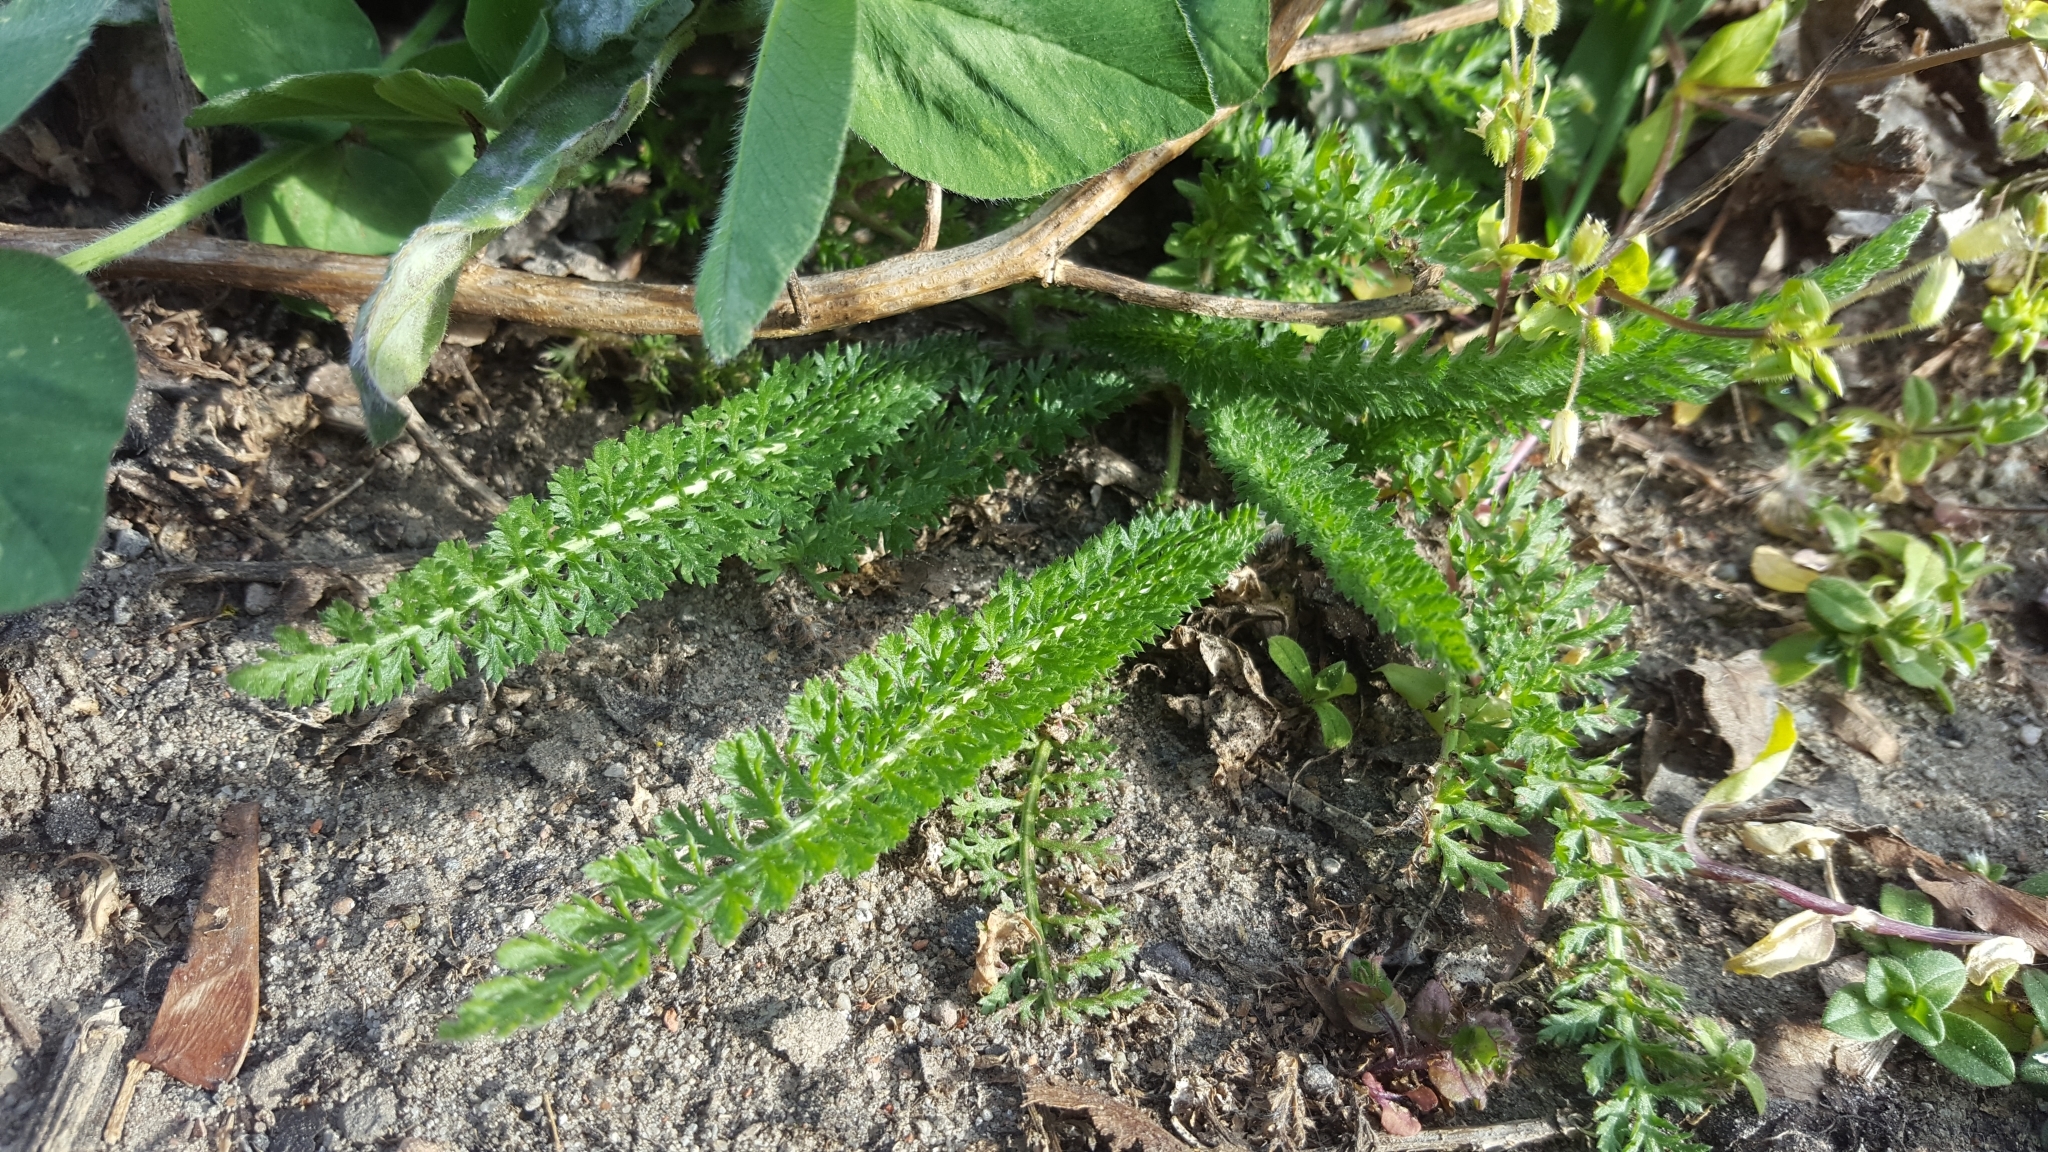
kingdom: Plantae
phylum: Tracheophyta
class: Magnoliopsida
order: Asterales
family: Asteraceae
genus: Achillea
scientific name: Achillea millefolium
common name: Yarrow
